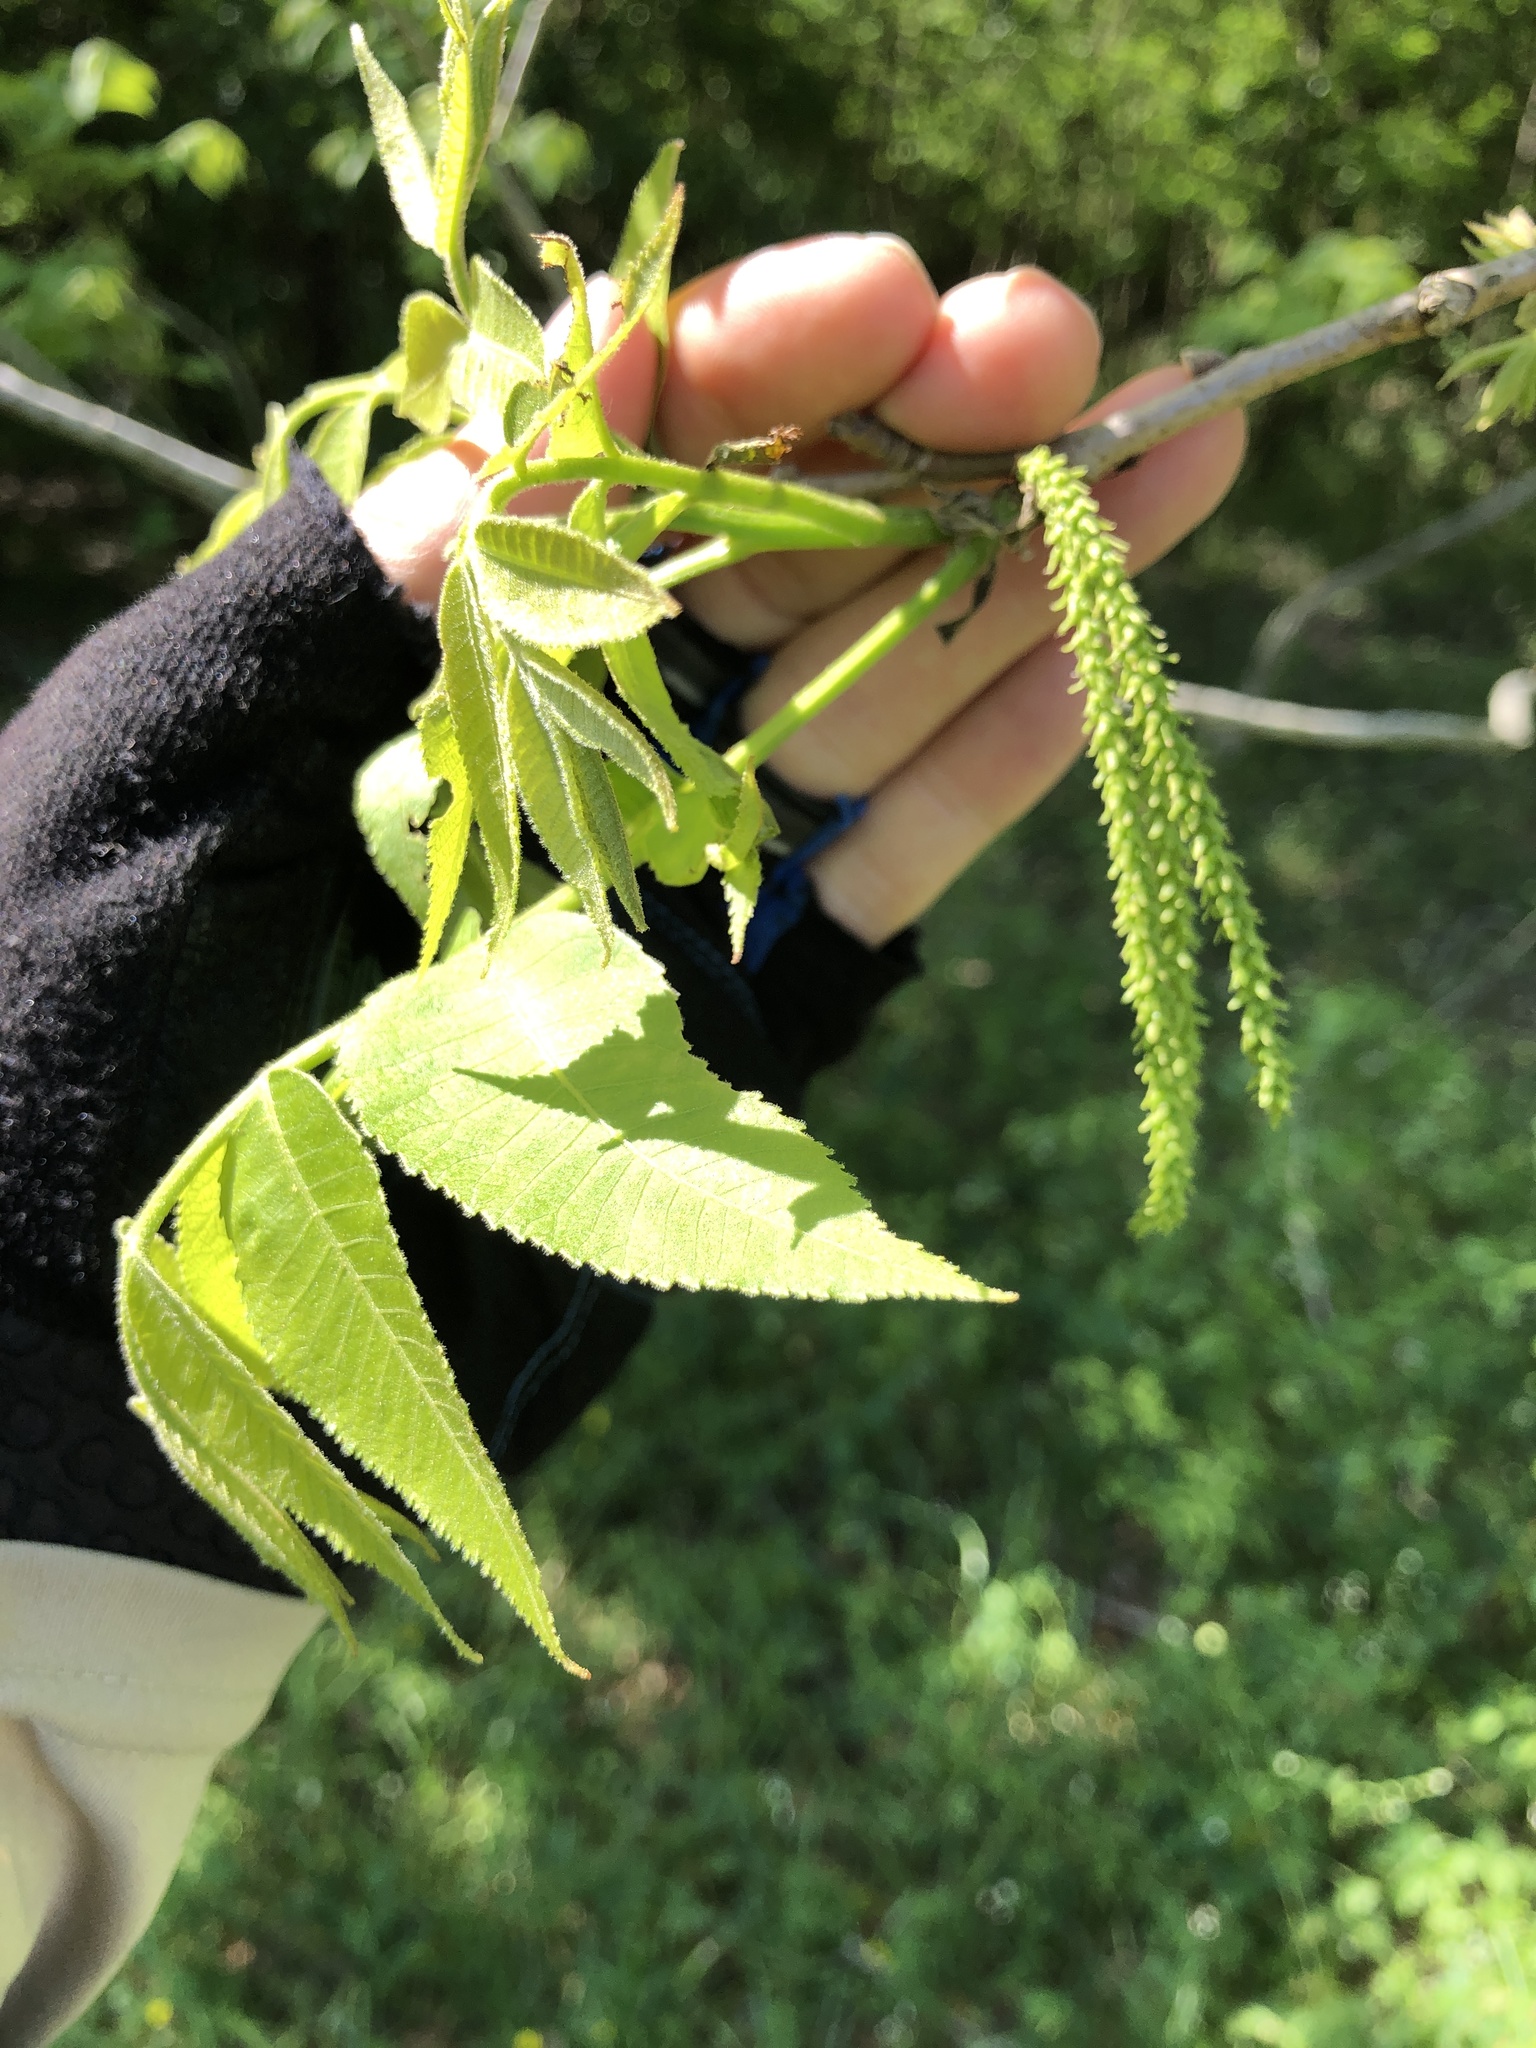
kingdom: Plantae
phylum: Tracheophyta
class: Magnoliopsida
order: Fagales
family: Juglandaceae
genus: Carya
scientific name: Carya illinoinensis
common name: Pecan
